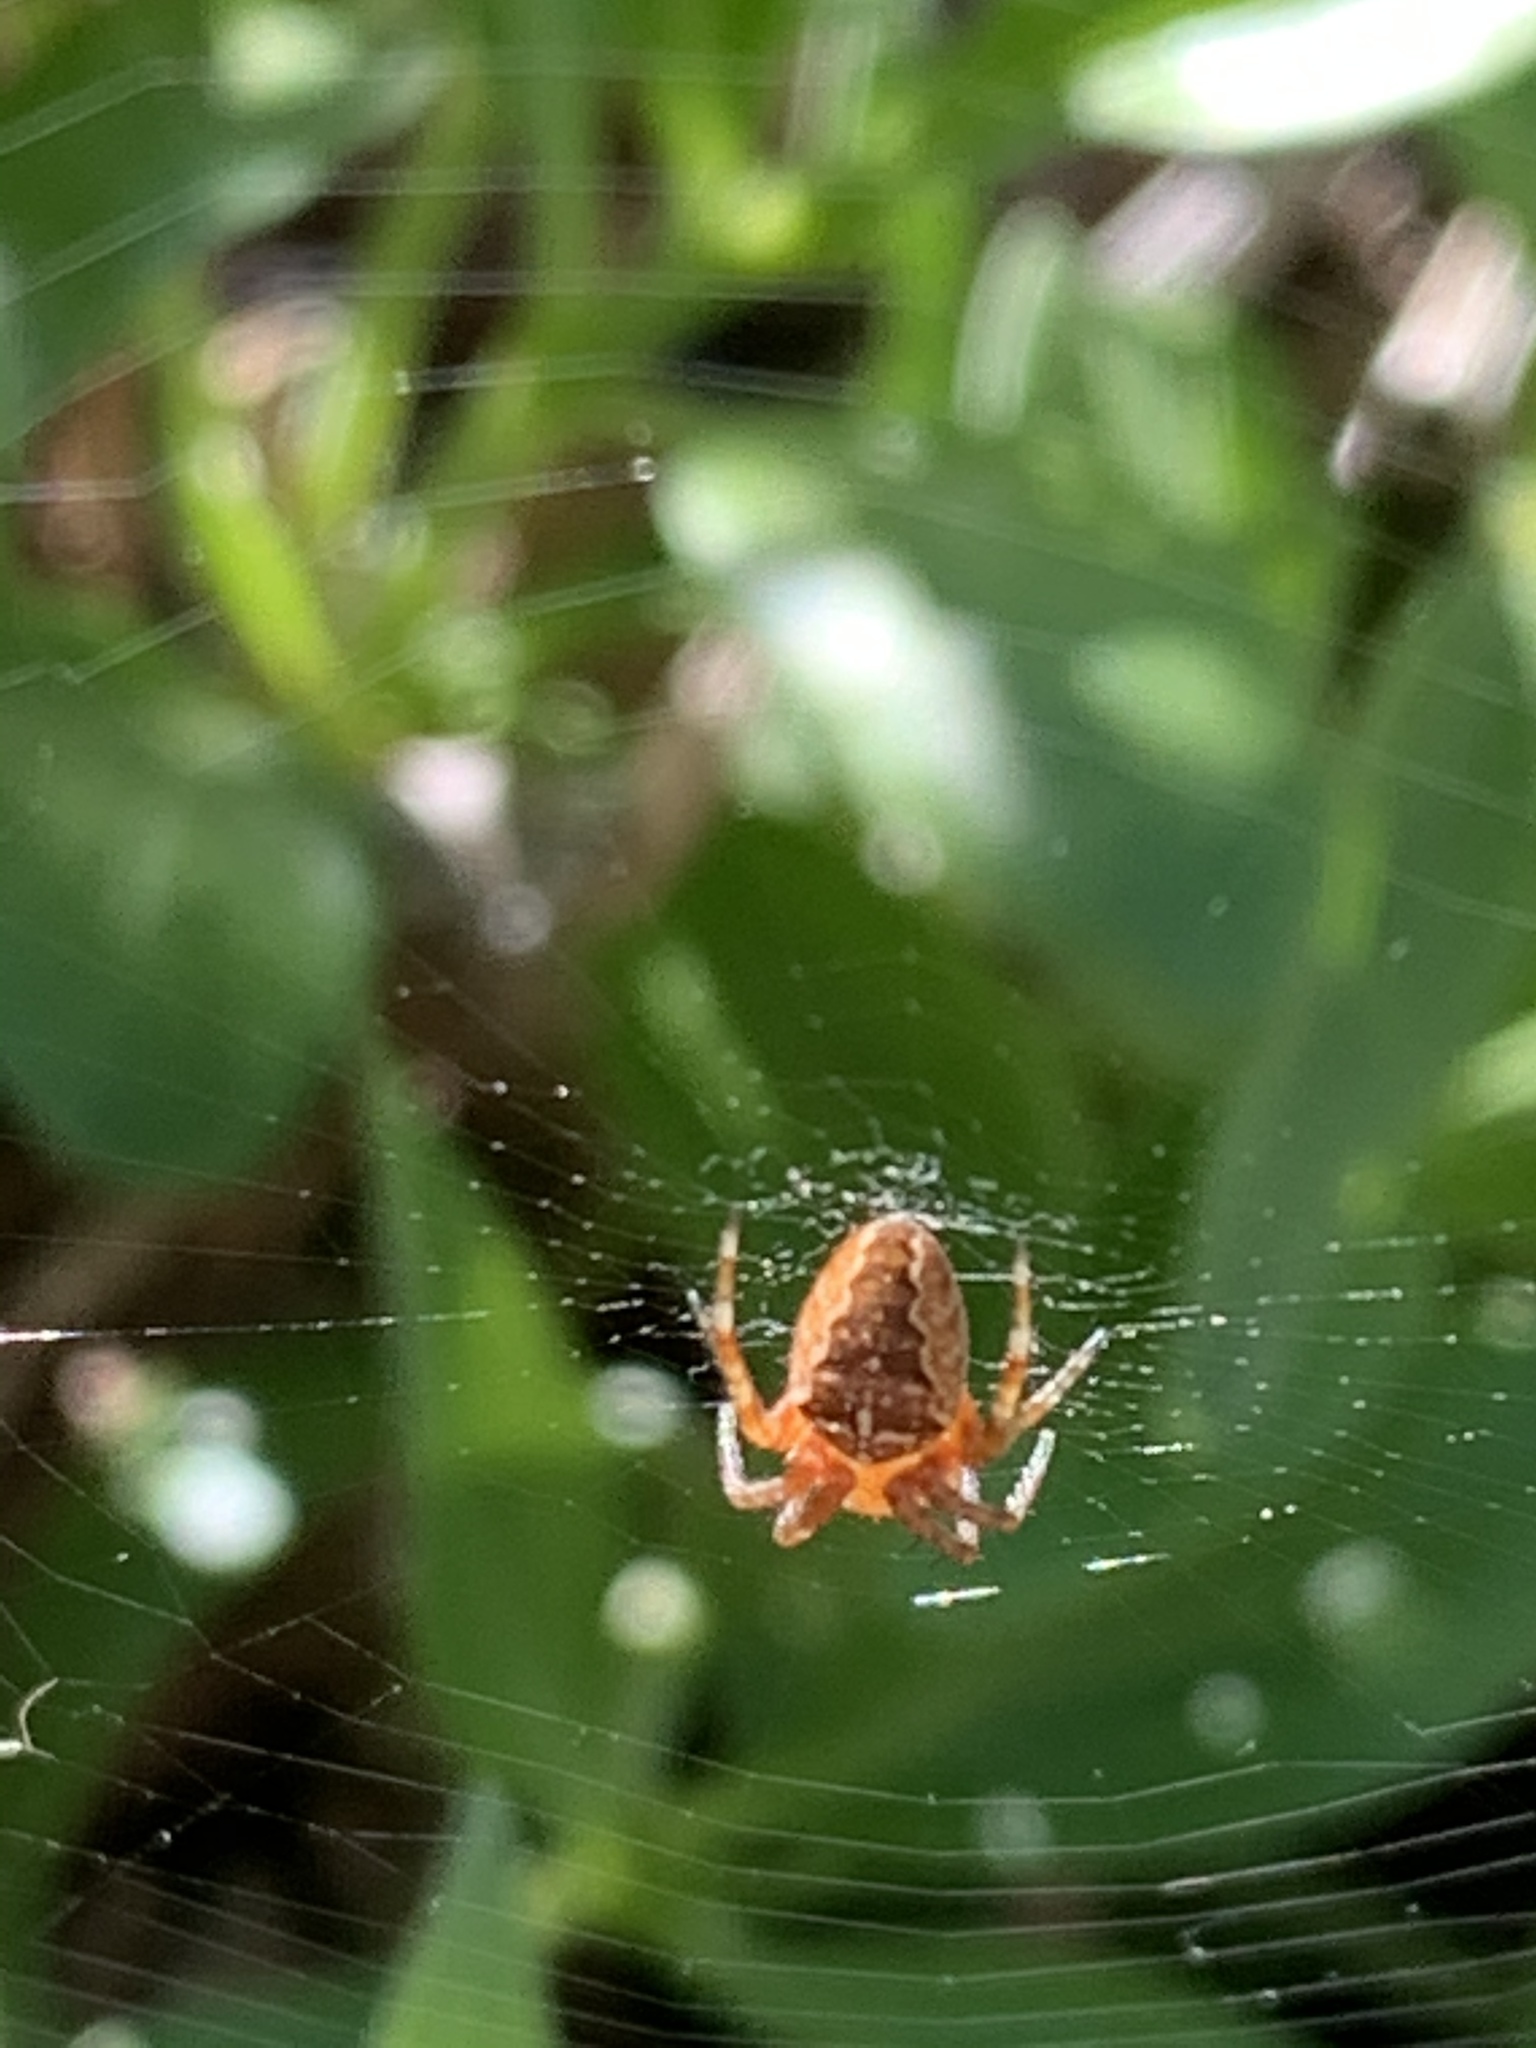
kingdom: Animalia
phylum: Arthropoda
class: Arachnida
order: Araneae
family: Araneidae
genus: Araneus
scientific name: Araneus diadematus
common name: Cross orbweaver
